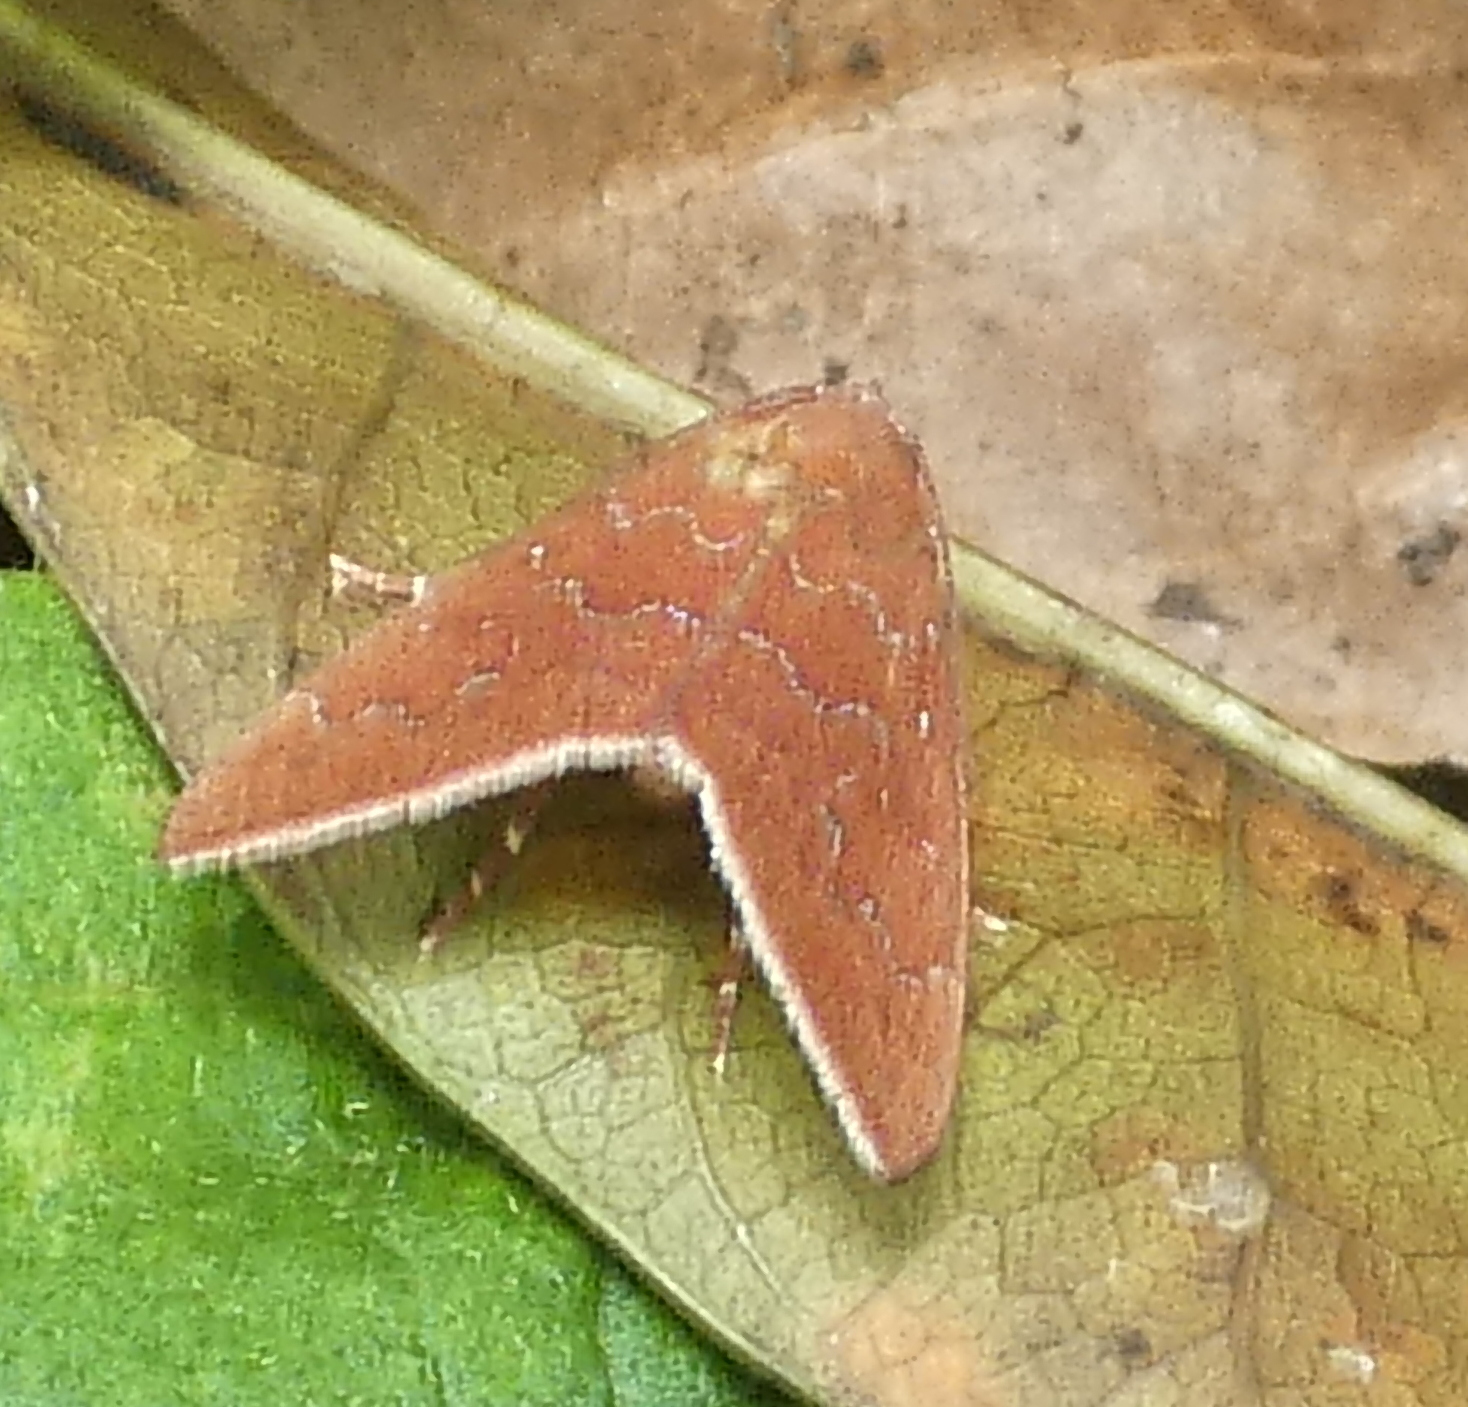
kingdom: Animalia
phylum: Arthropoda
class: Insecta
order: Lepidoptera
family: Erebidae
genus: Anomis
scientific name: Anomis illita
